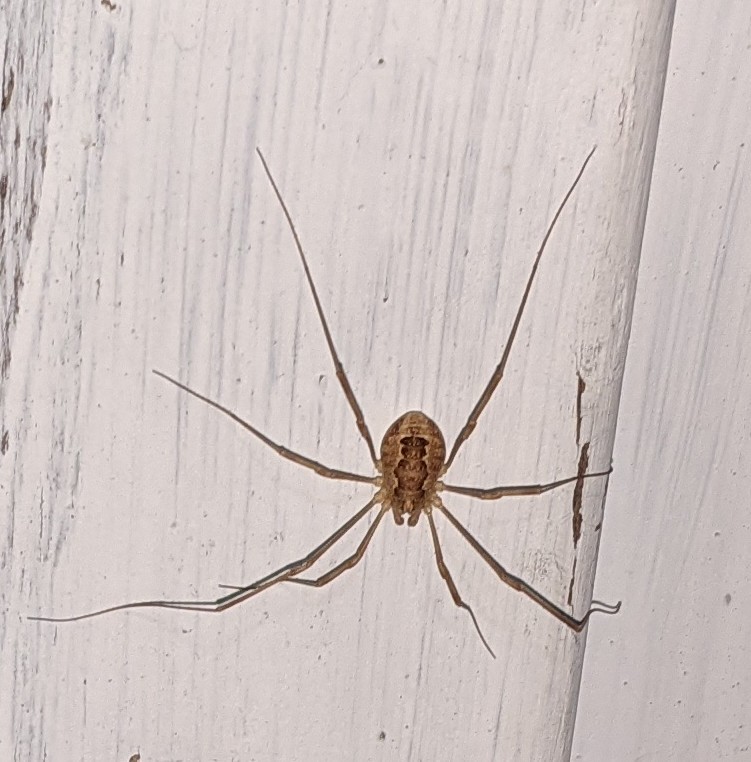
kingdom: Animalia
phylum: Arthropoda
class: Arachnida
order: Opiliones
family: Phalangiidae
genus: Rilaena
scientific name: Rilaena triangularis
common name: Spring harvestman
